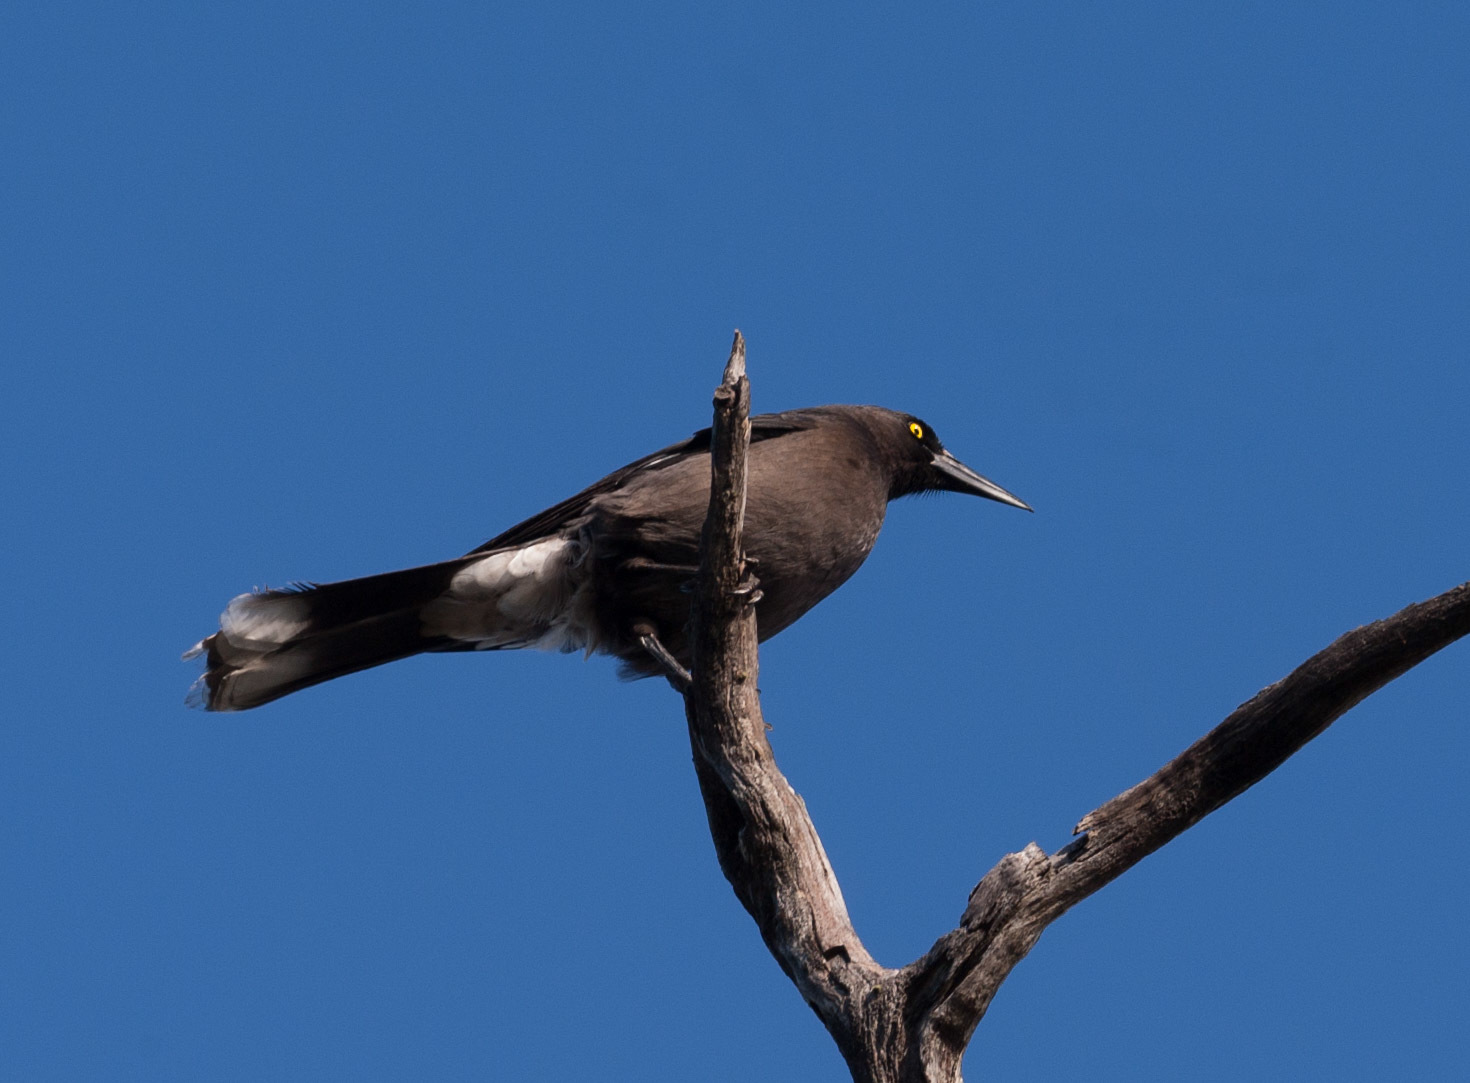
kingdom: Animalia
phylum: Chordata
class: Aves
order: Passeriformes
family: Cracticidae
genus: Strepera
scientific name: Strepera versicolor
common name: Grey currawong
